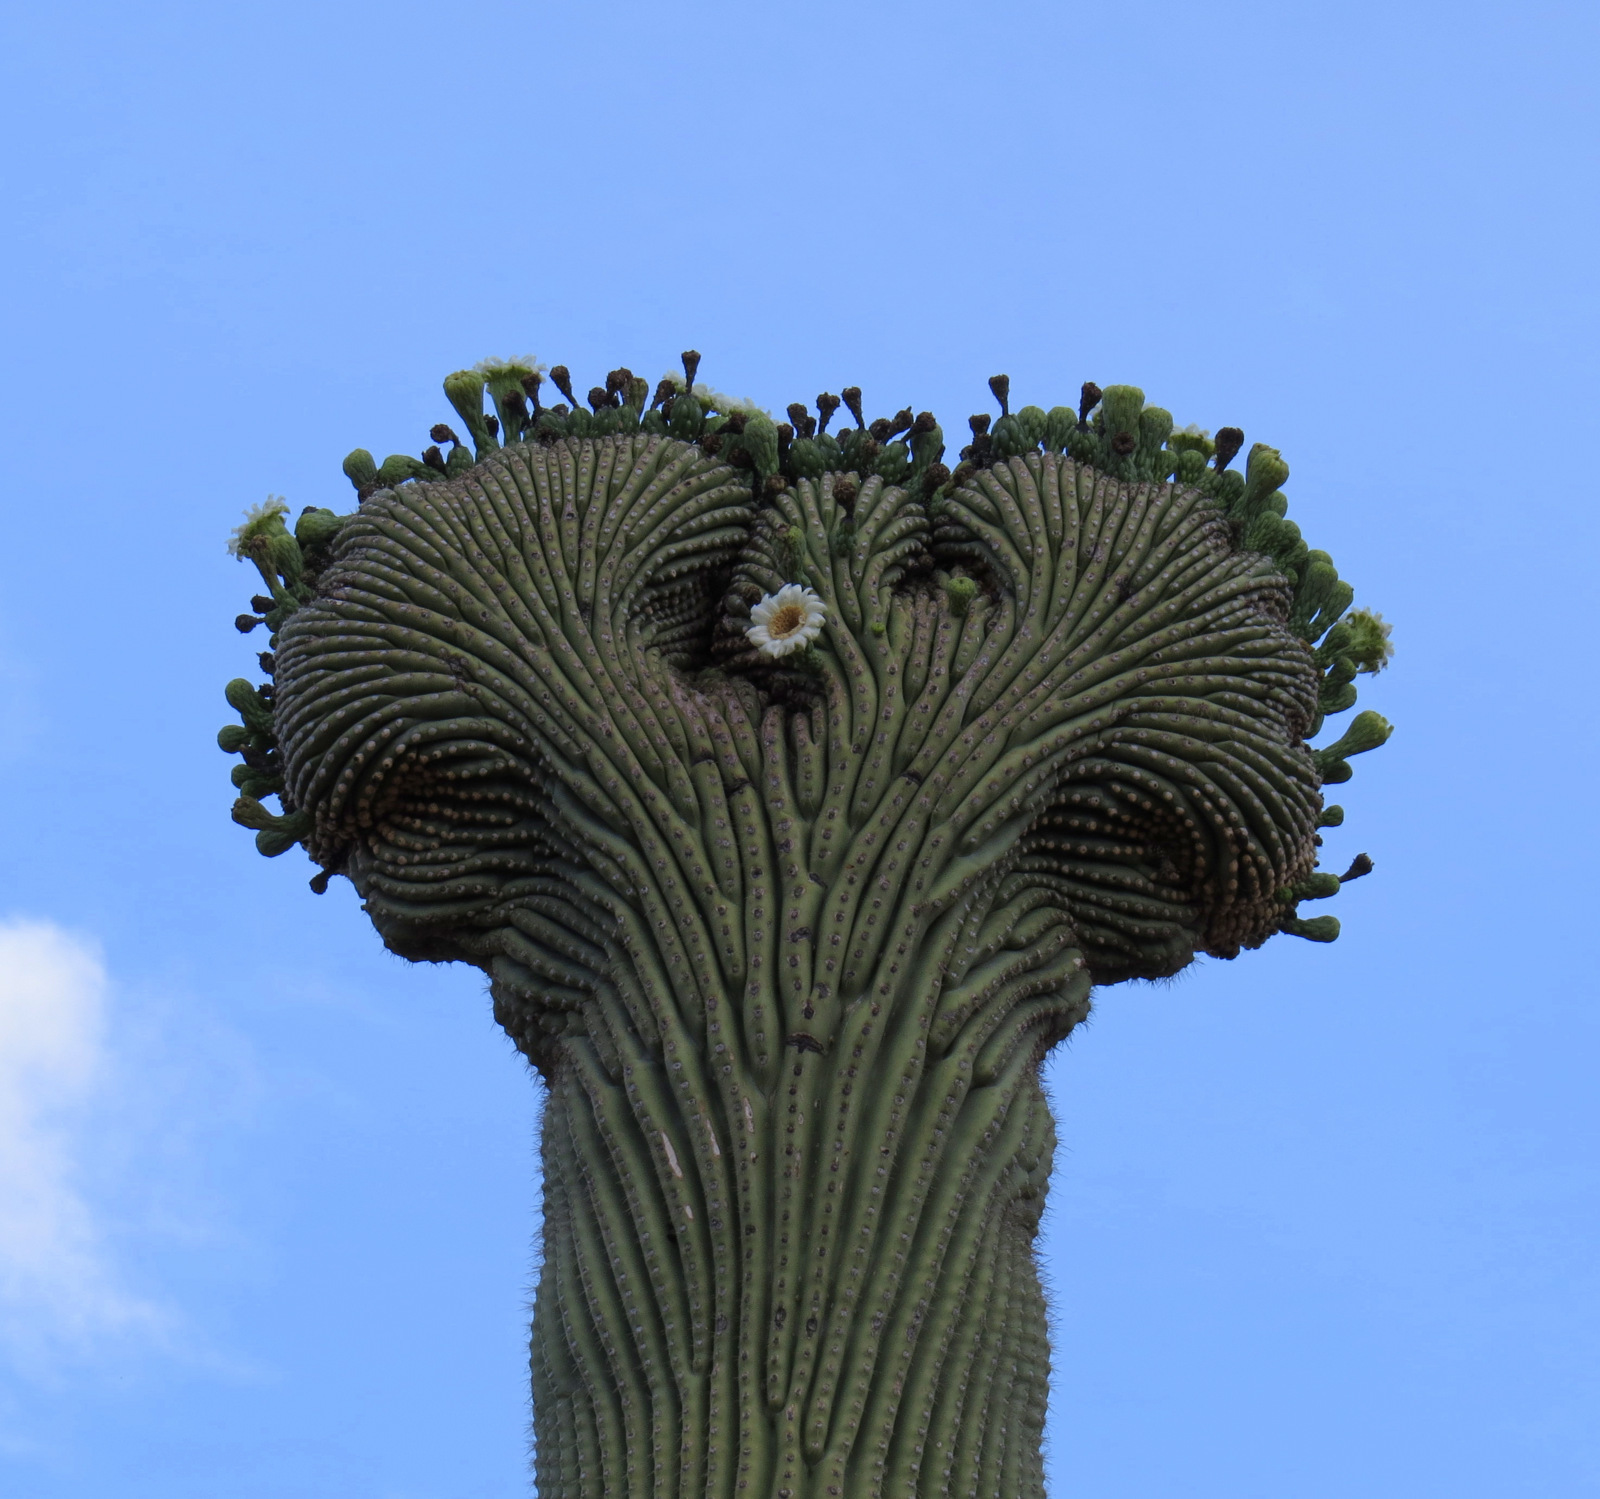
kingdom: Plantae
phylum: Tracheophyta
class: Magnoliopsida
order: Caryophyllales
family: Cactaceae
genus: Carnegiea
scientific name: Carnegiea gigantea
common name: Saguaro
